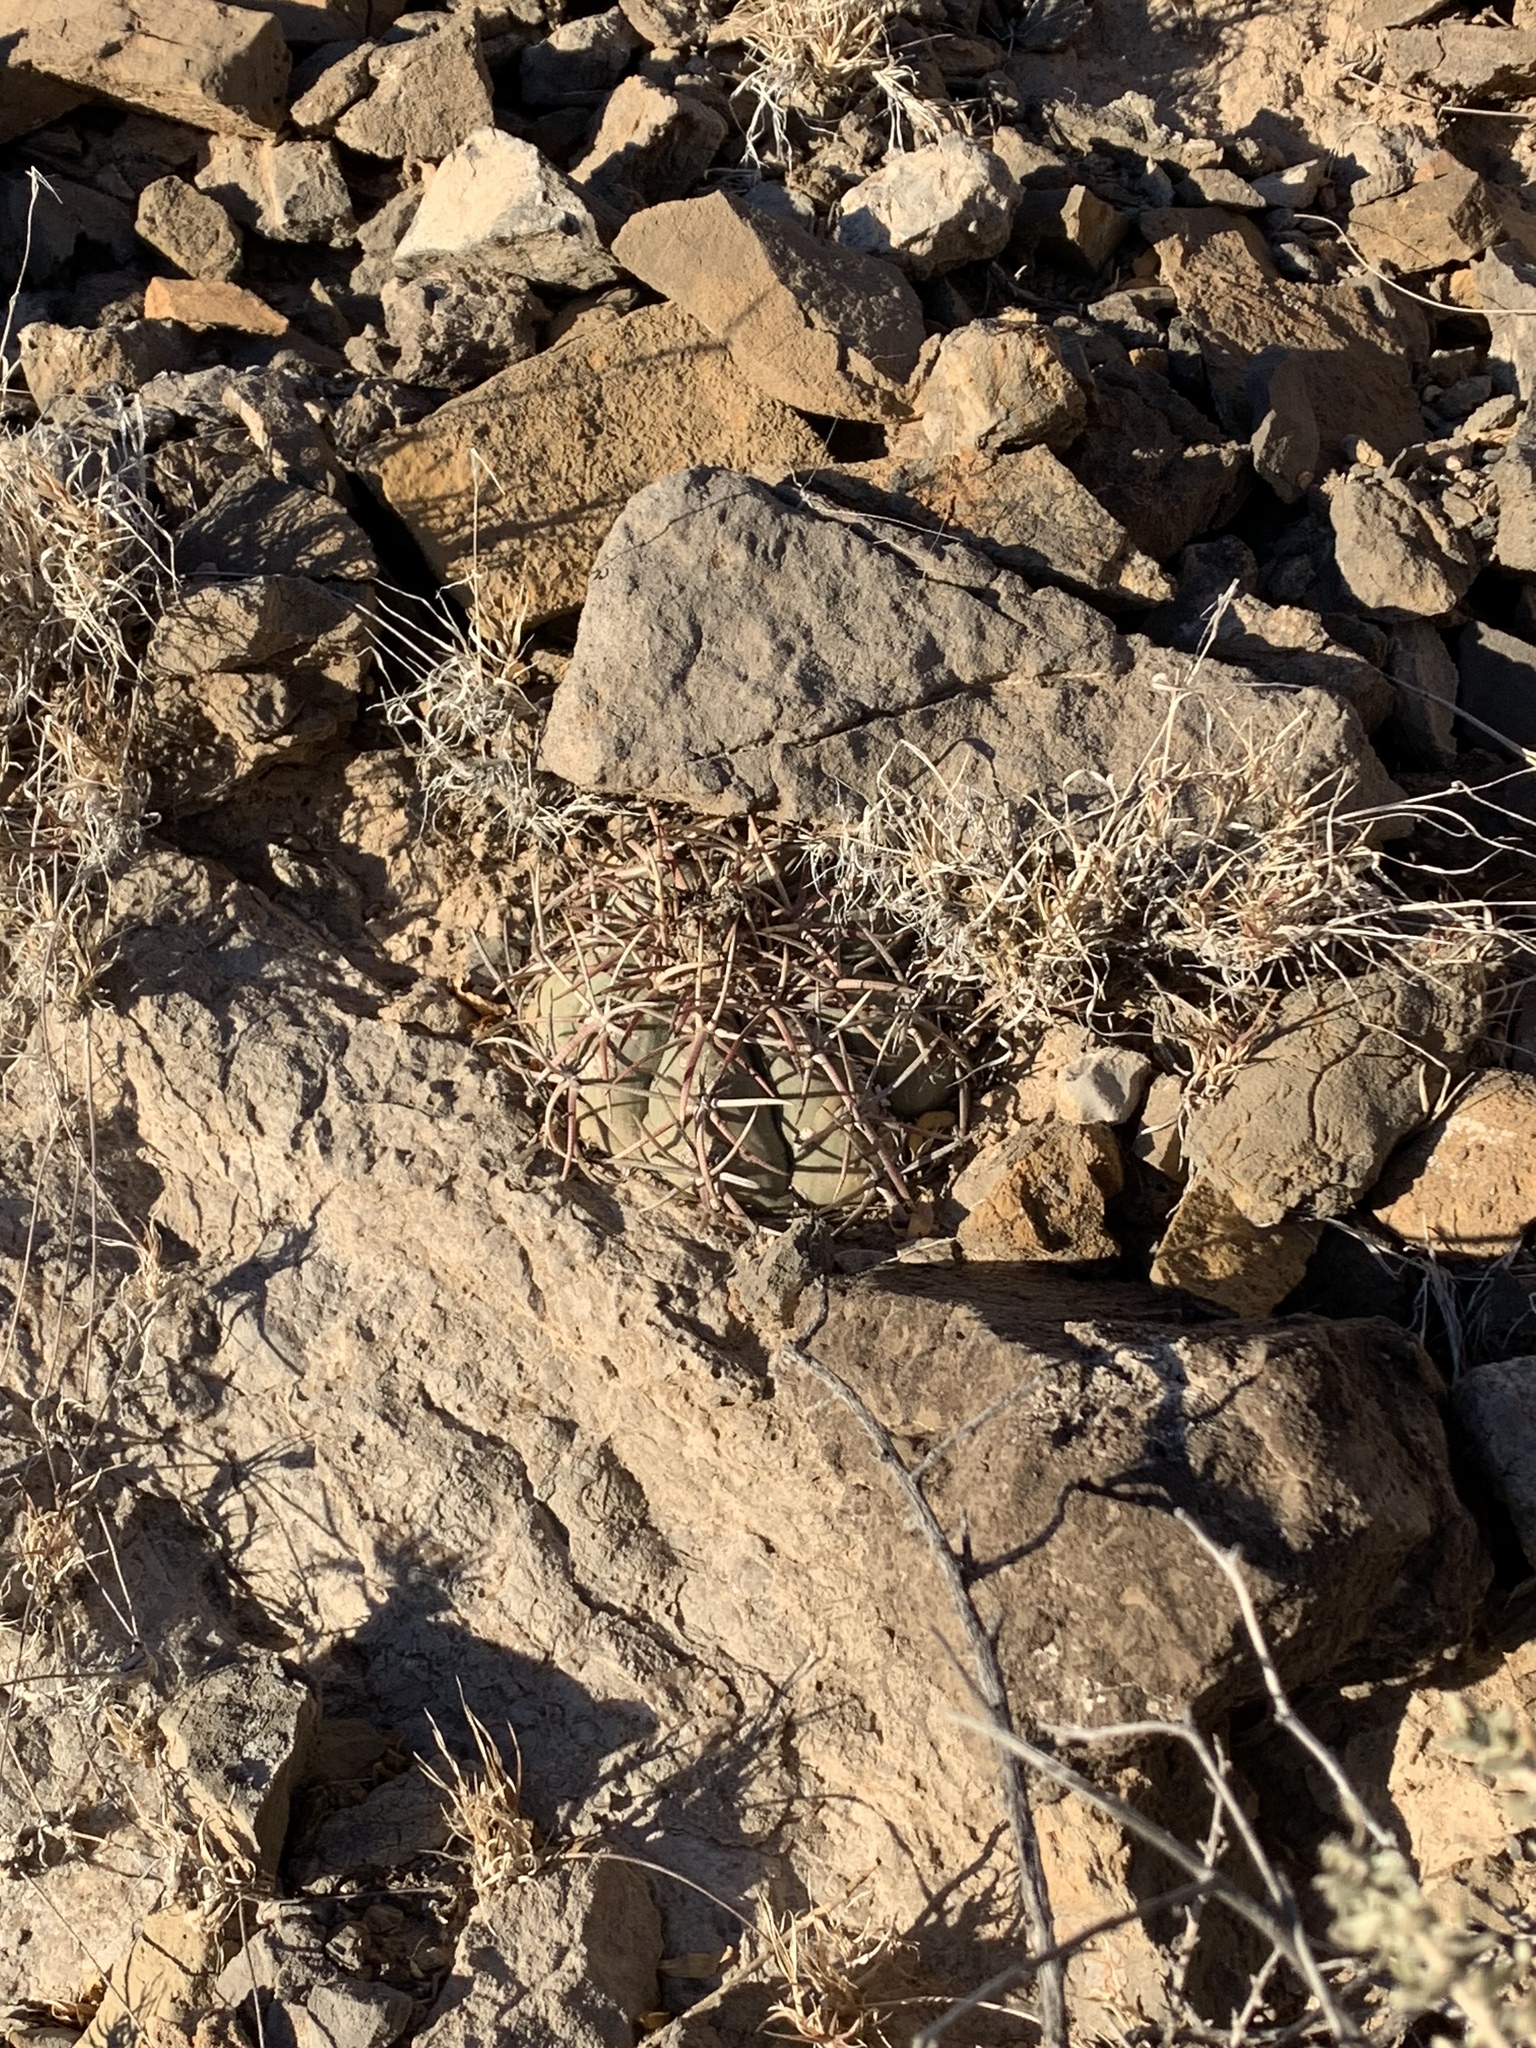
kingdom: Plantae
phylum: Tracheophyta
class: Magnoliopsida
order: Caryophyllales
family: Cactaceae
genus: Echinocactus
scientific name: Echinocactus horizonthalonius
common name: Devilshead
